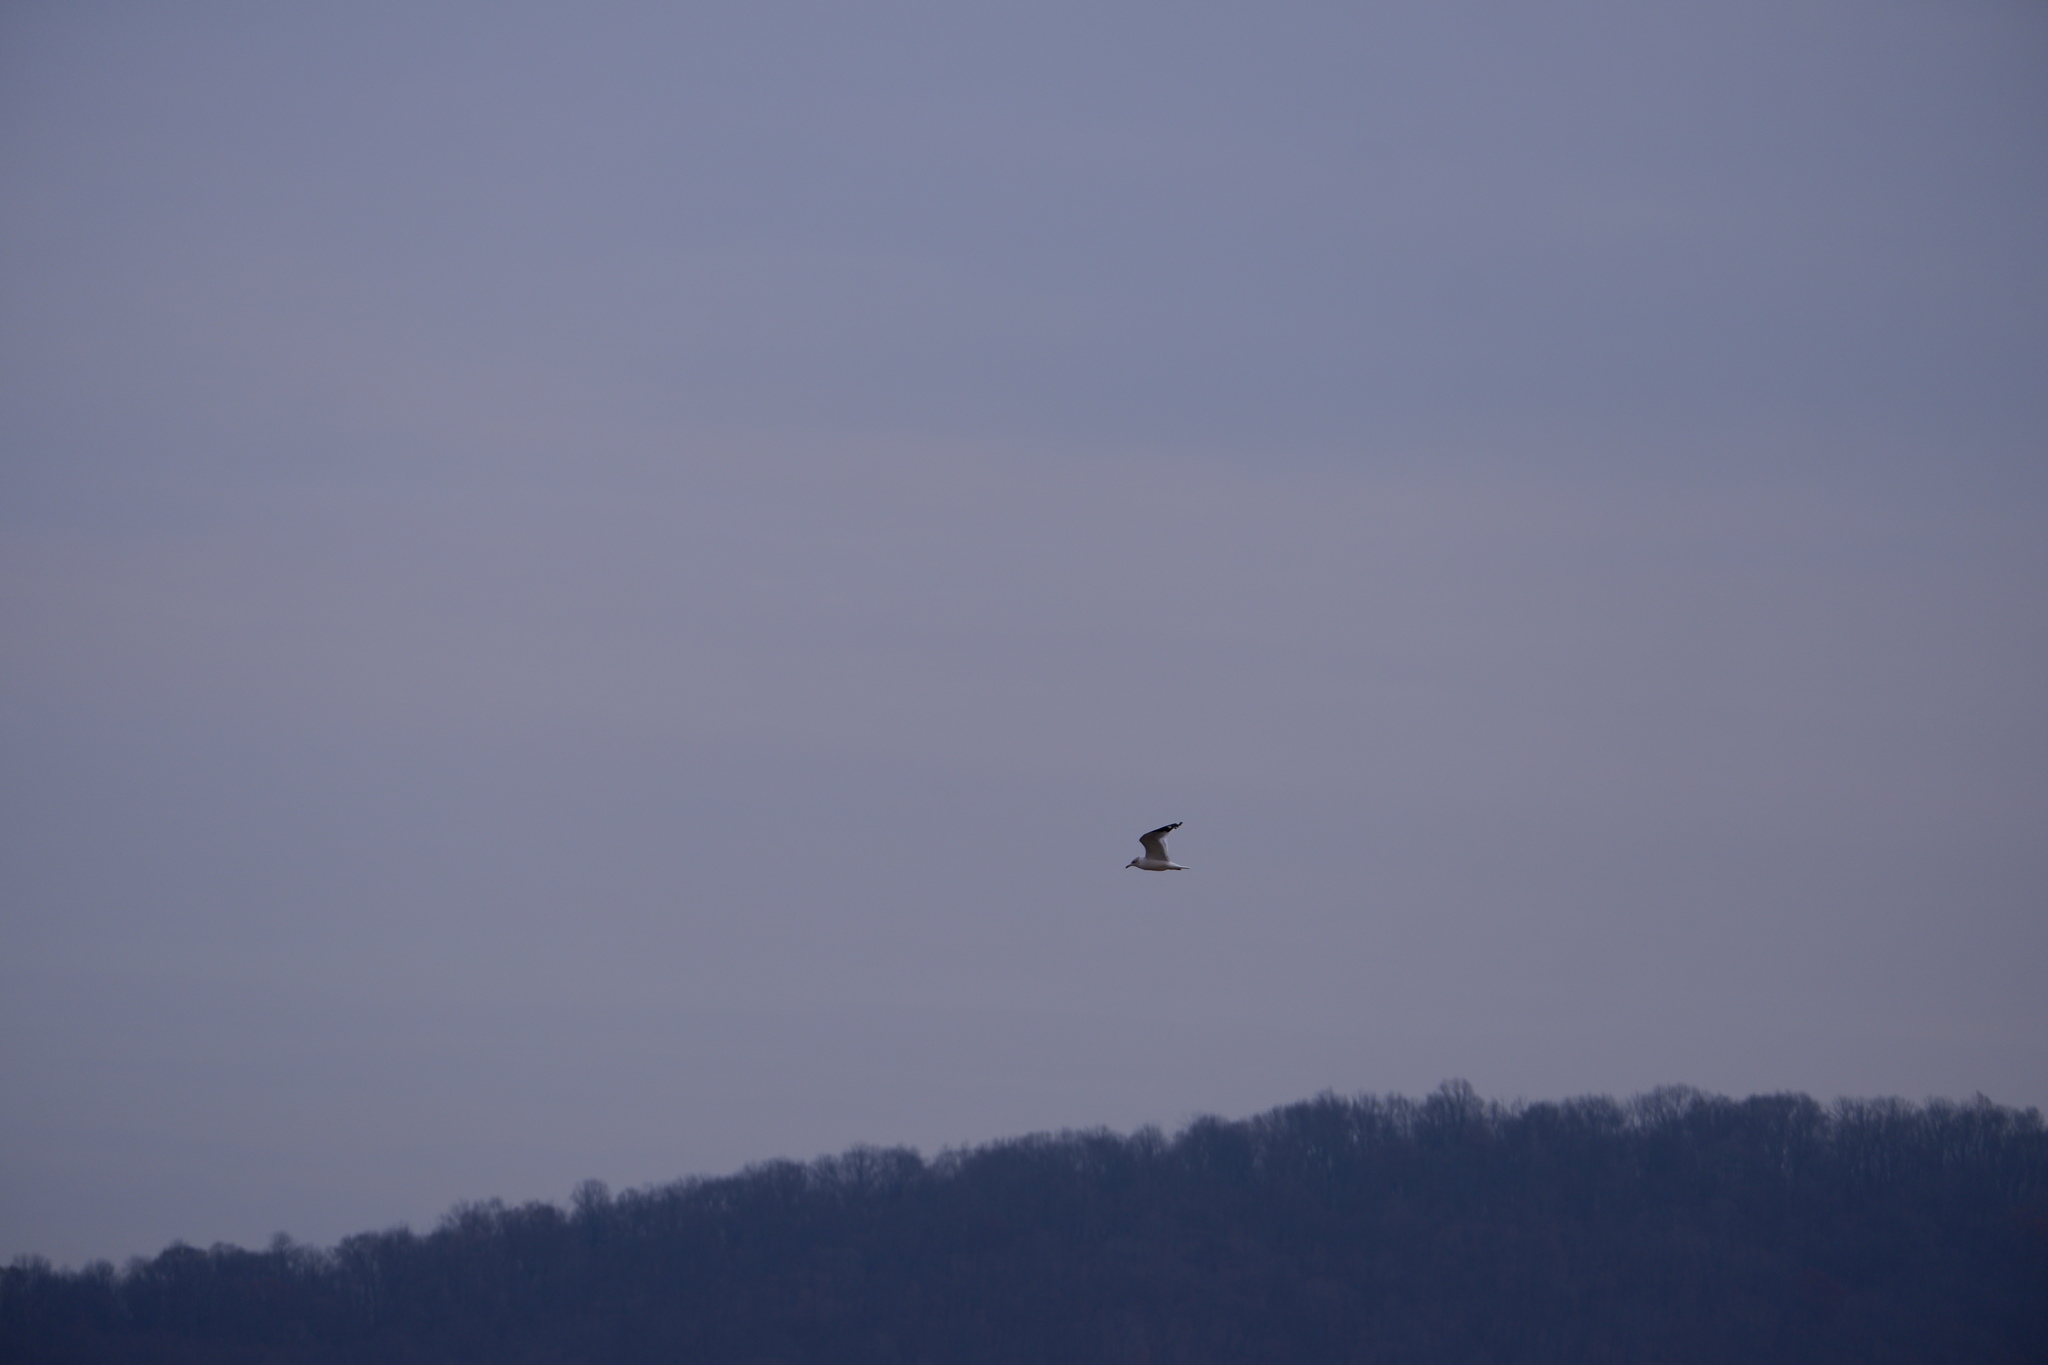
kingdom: Animalia
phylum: Chordata
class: Aves
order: Charadriiformes
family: Laridae
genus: Larus
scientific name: Larus delawarensis
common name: Ring-billed gull
